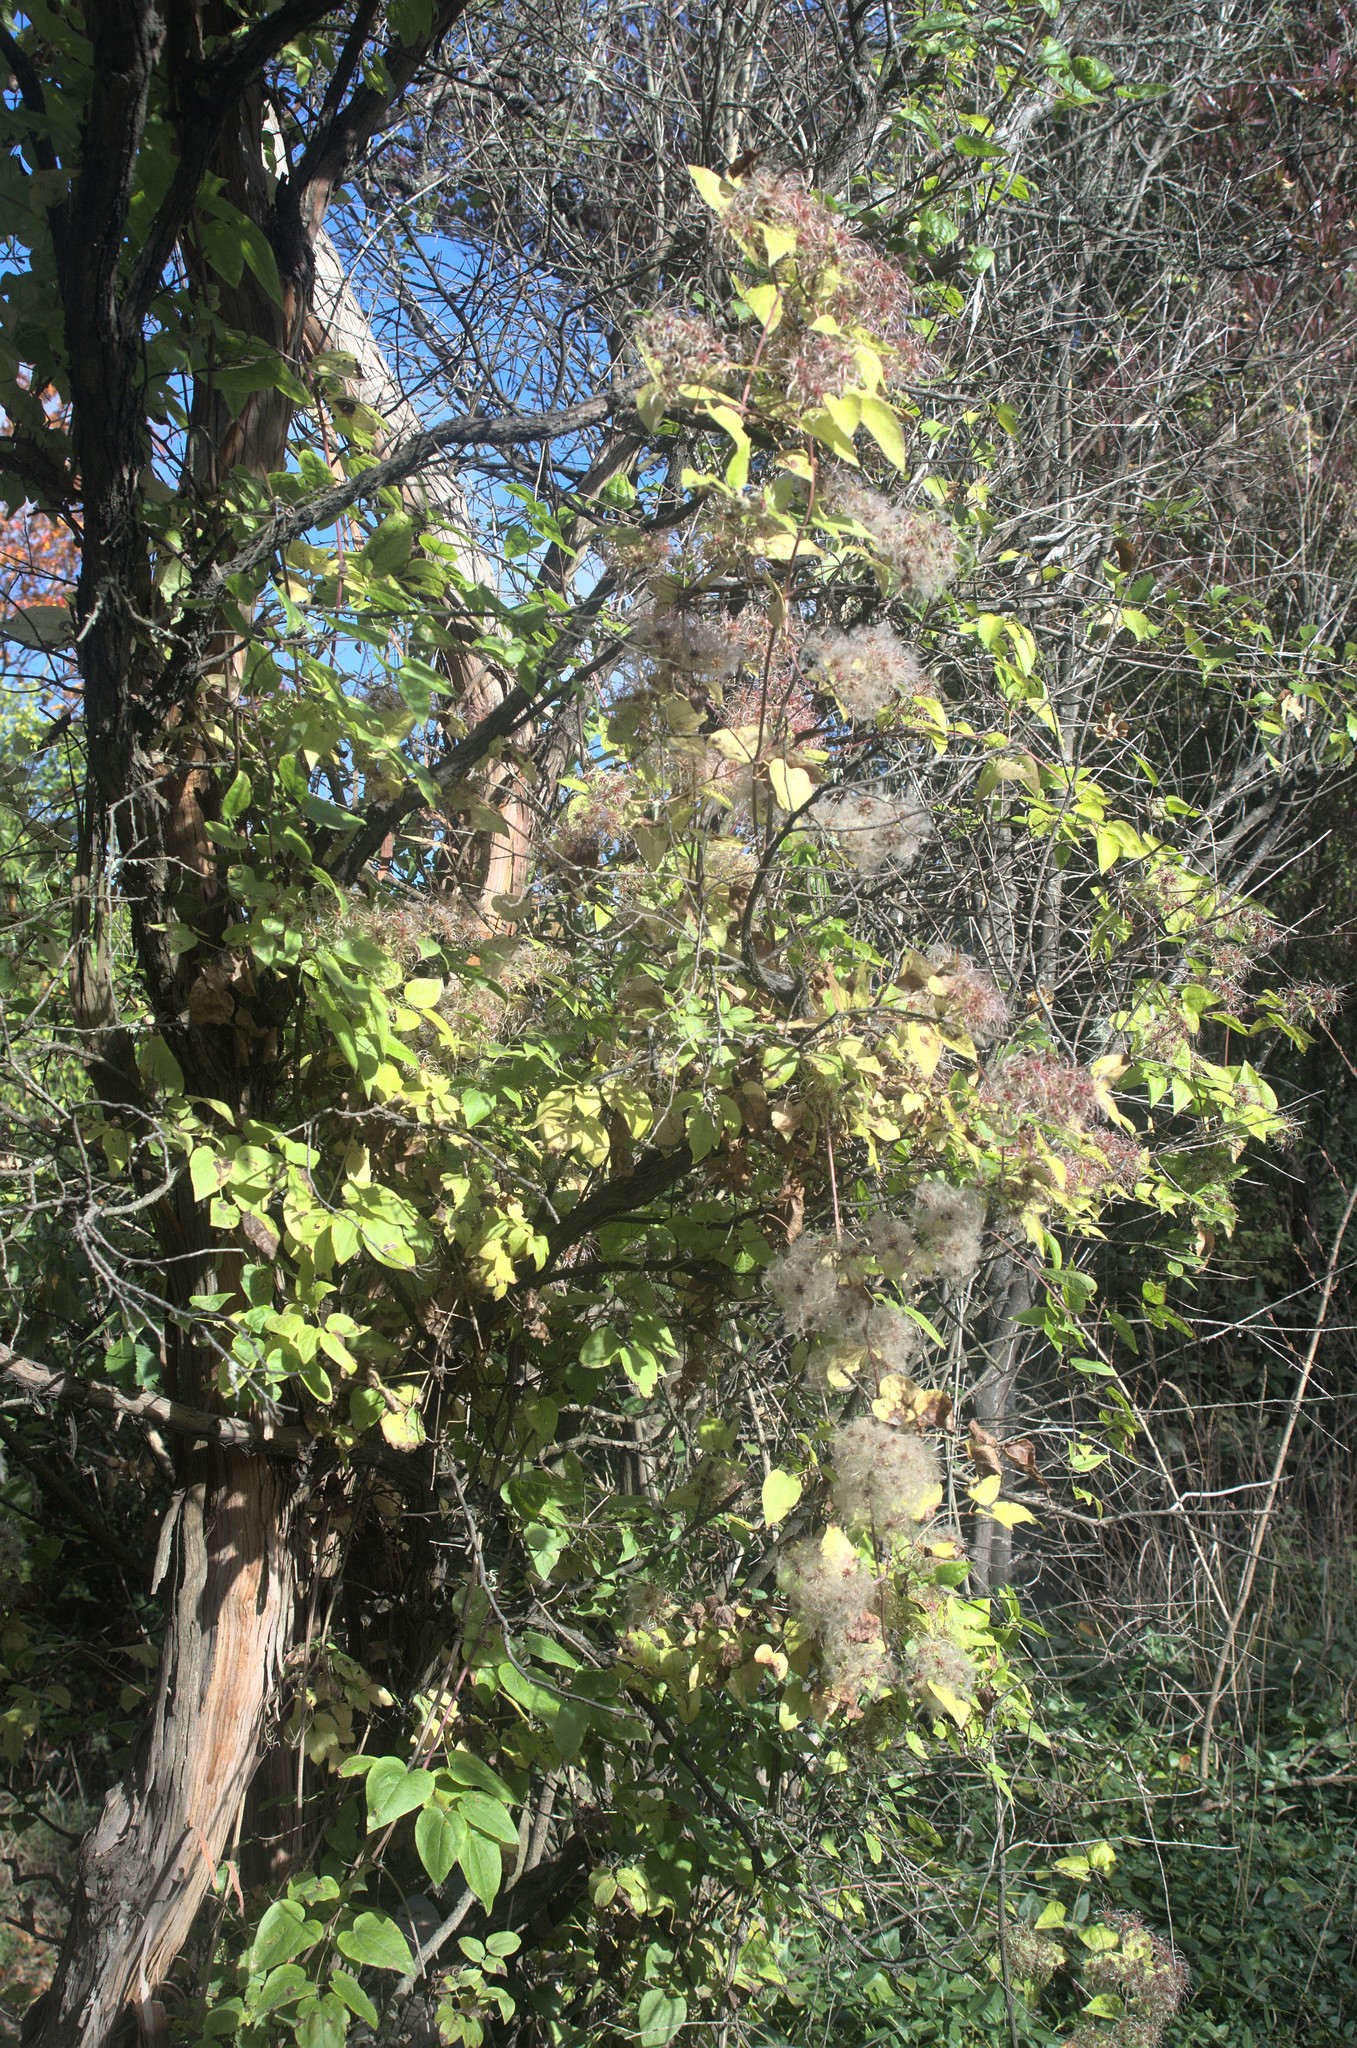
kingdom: Plantae
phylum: Tracheophyta
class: Magnoliopsida
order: Ranunculales
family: Ranunculaceae
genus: Clematis
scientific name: Clematis vitalba
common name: Evergreen clematis
